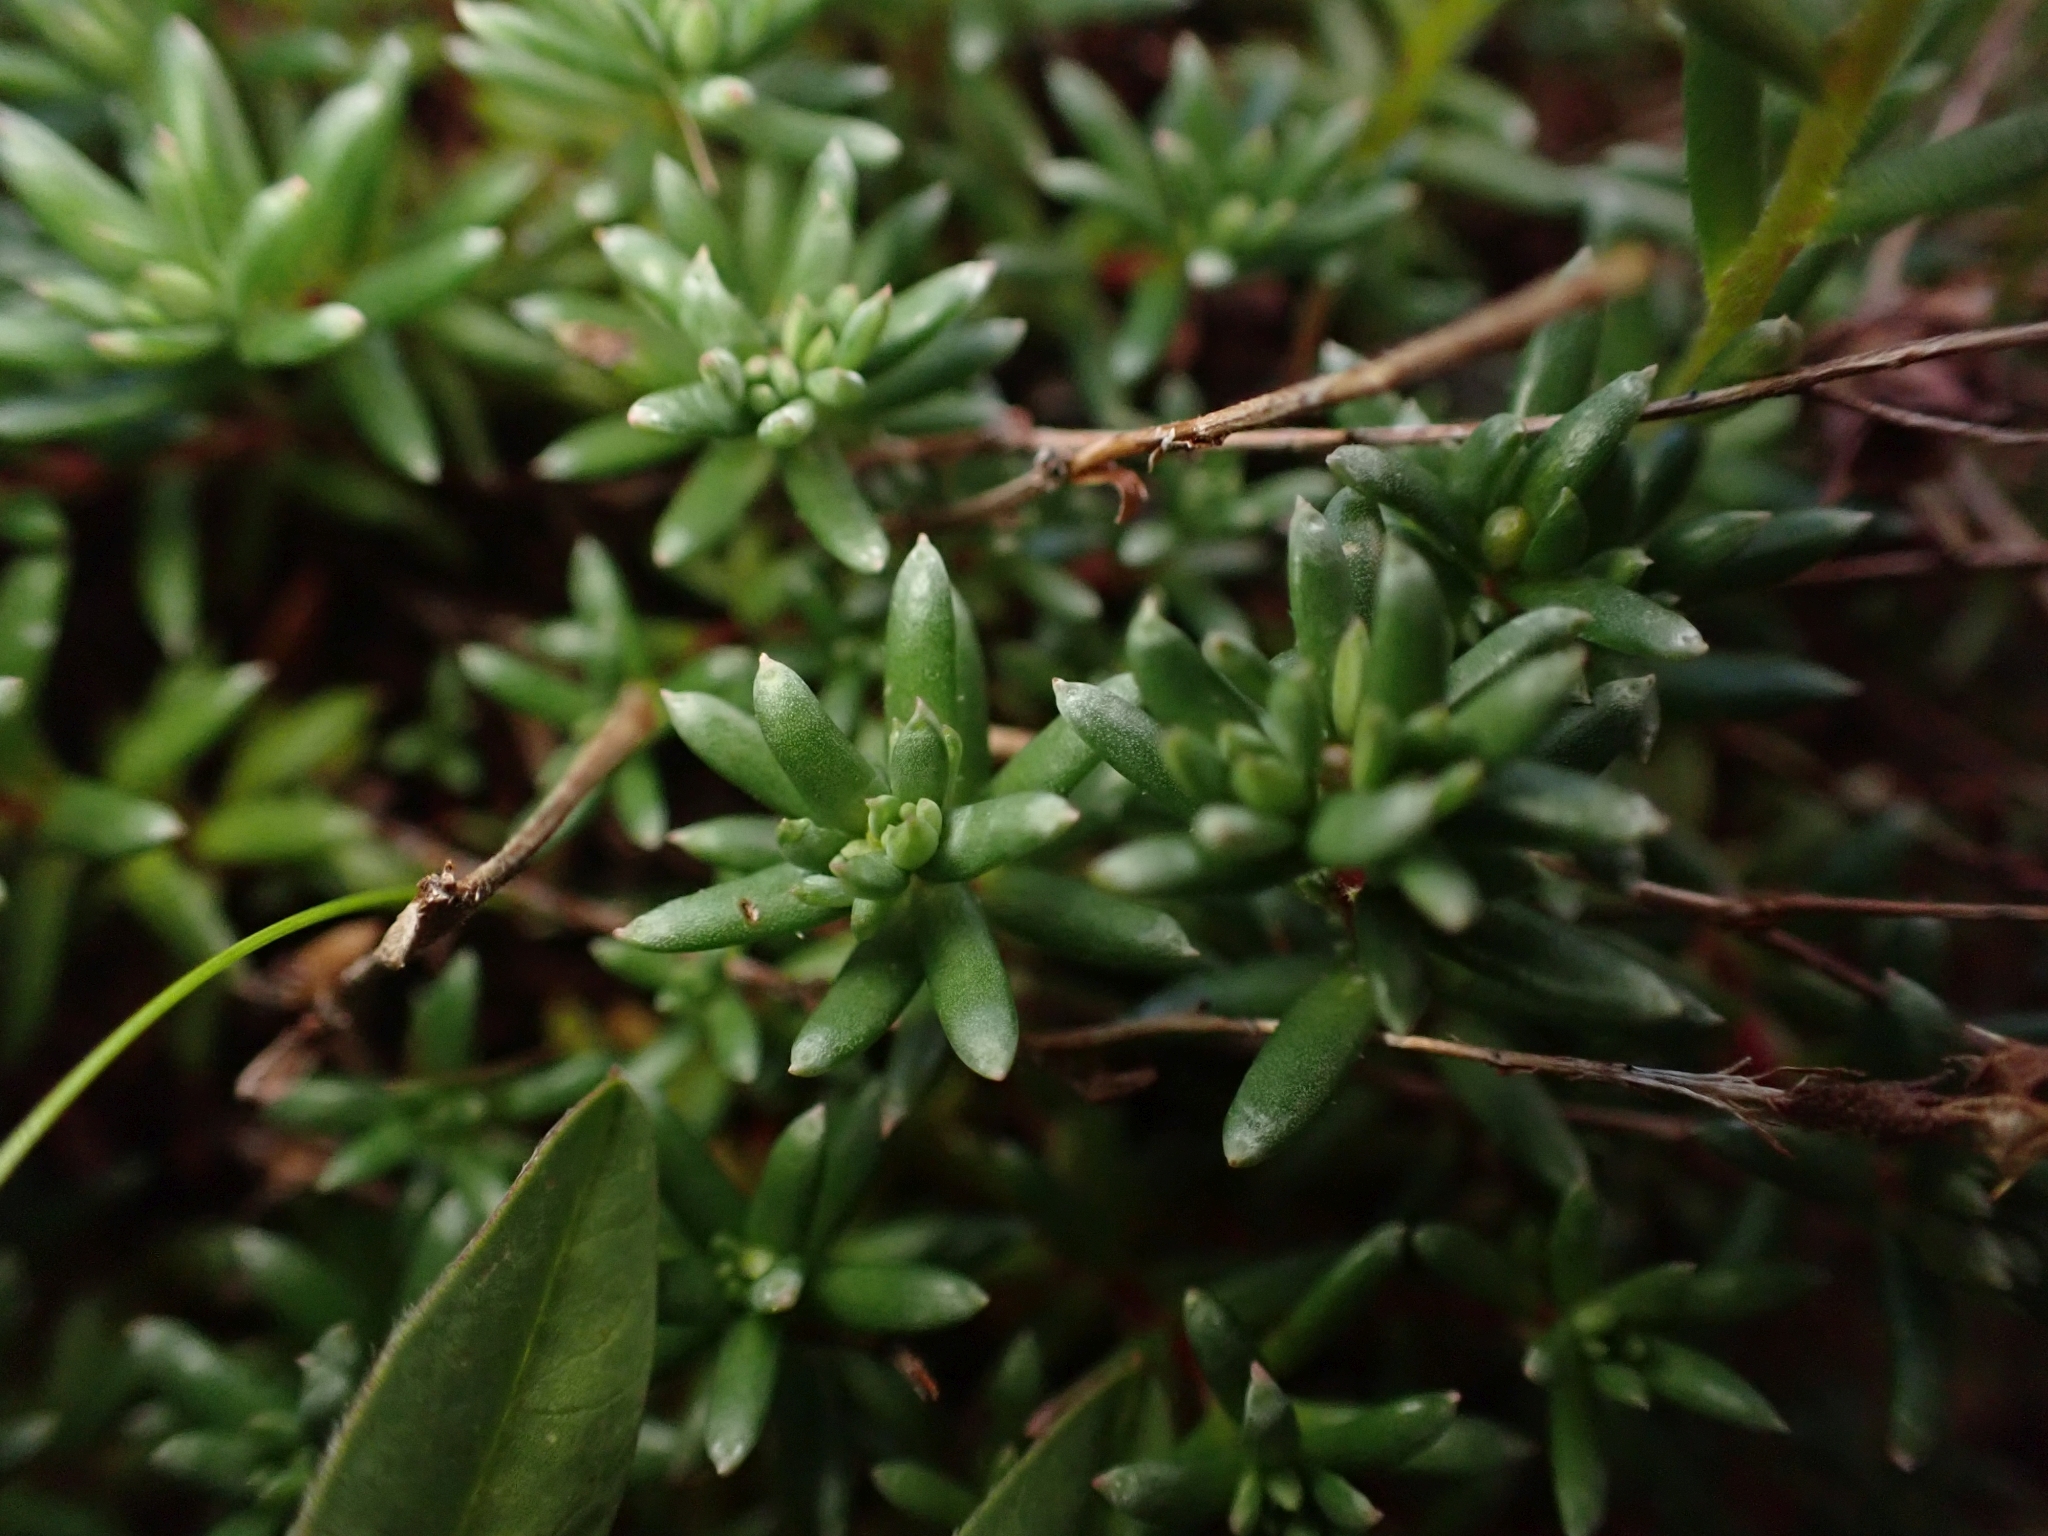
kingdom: Plantae
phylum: Tracheophyta
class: Magnoliopsida
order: Saxifragales
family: Saxifragaceae
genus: Saxifraga
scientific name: Saxifraga aizoides
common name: Yellow mountain saxifrage
